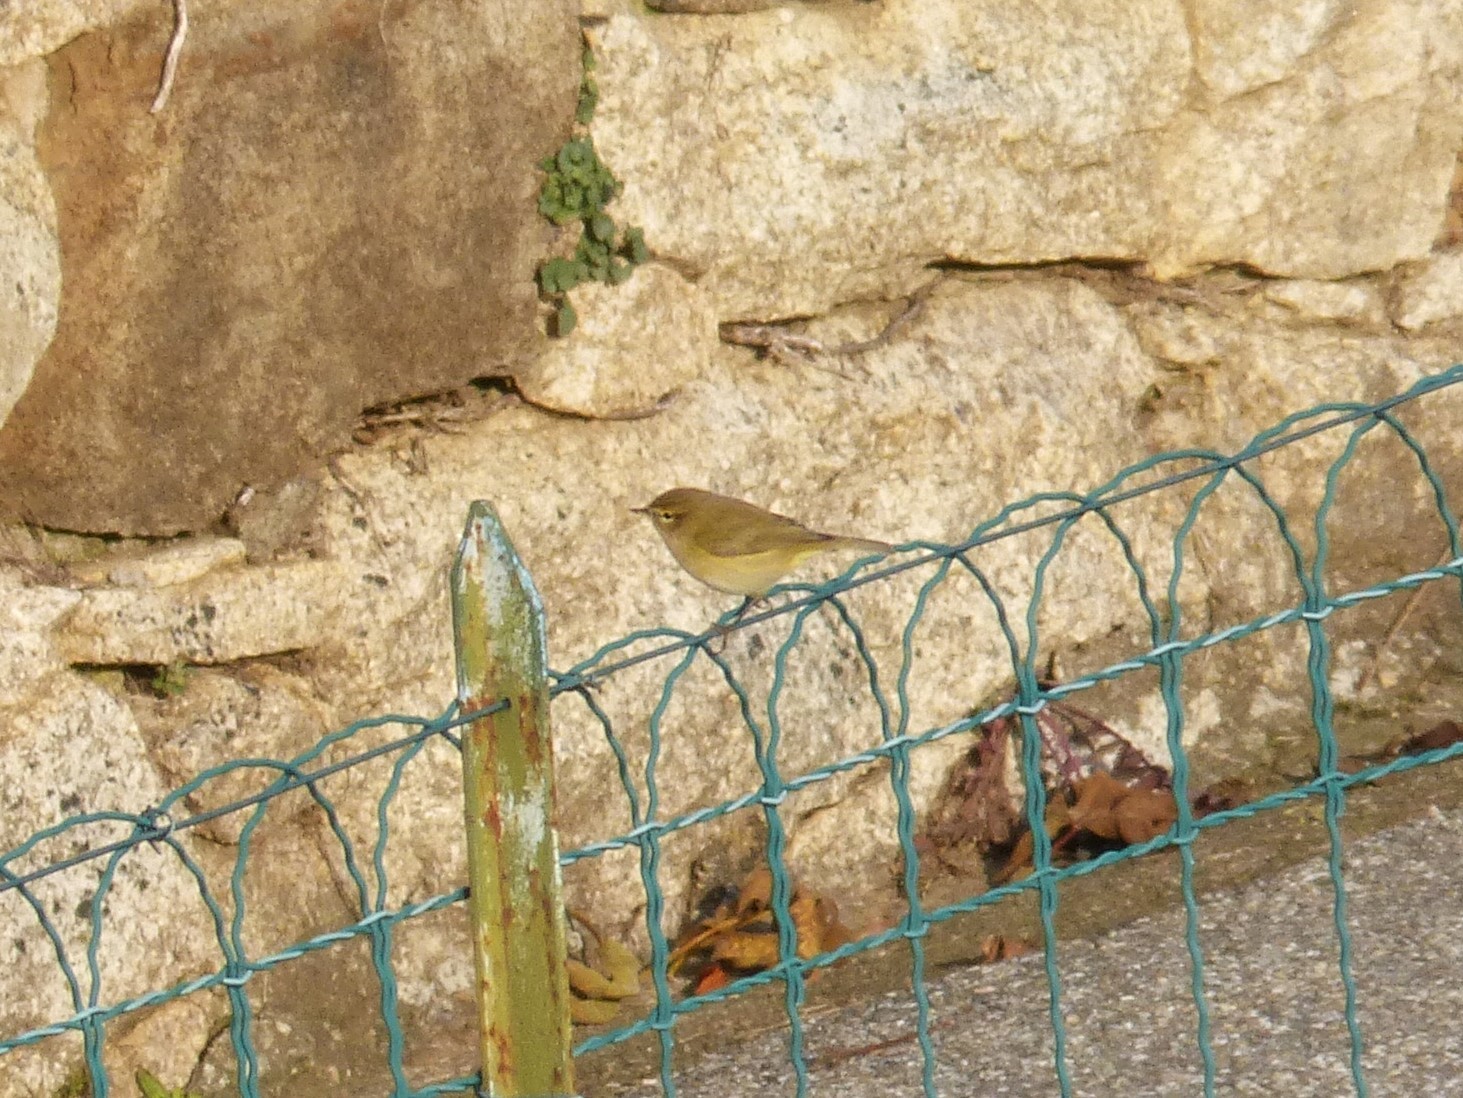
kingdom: Animalia
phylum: Chordata
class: Aves
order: Passeriformes
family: Phylloscopidae
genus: Phylloscopus
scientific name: Phylloscopus collybita
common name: Common chiffchaff
